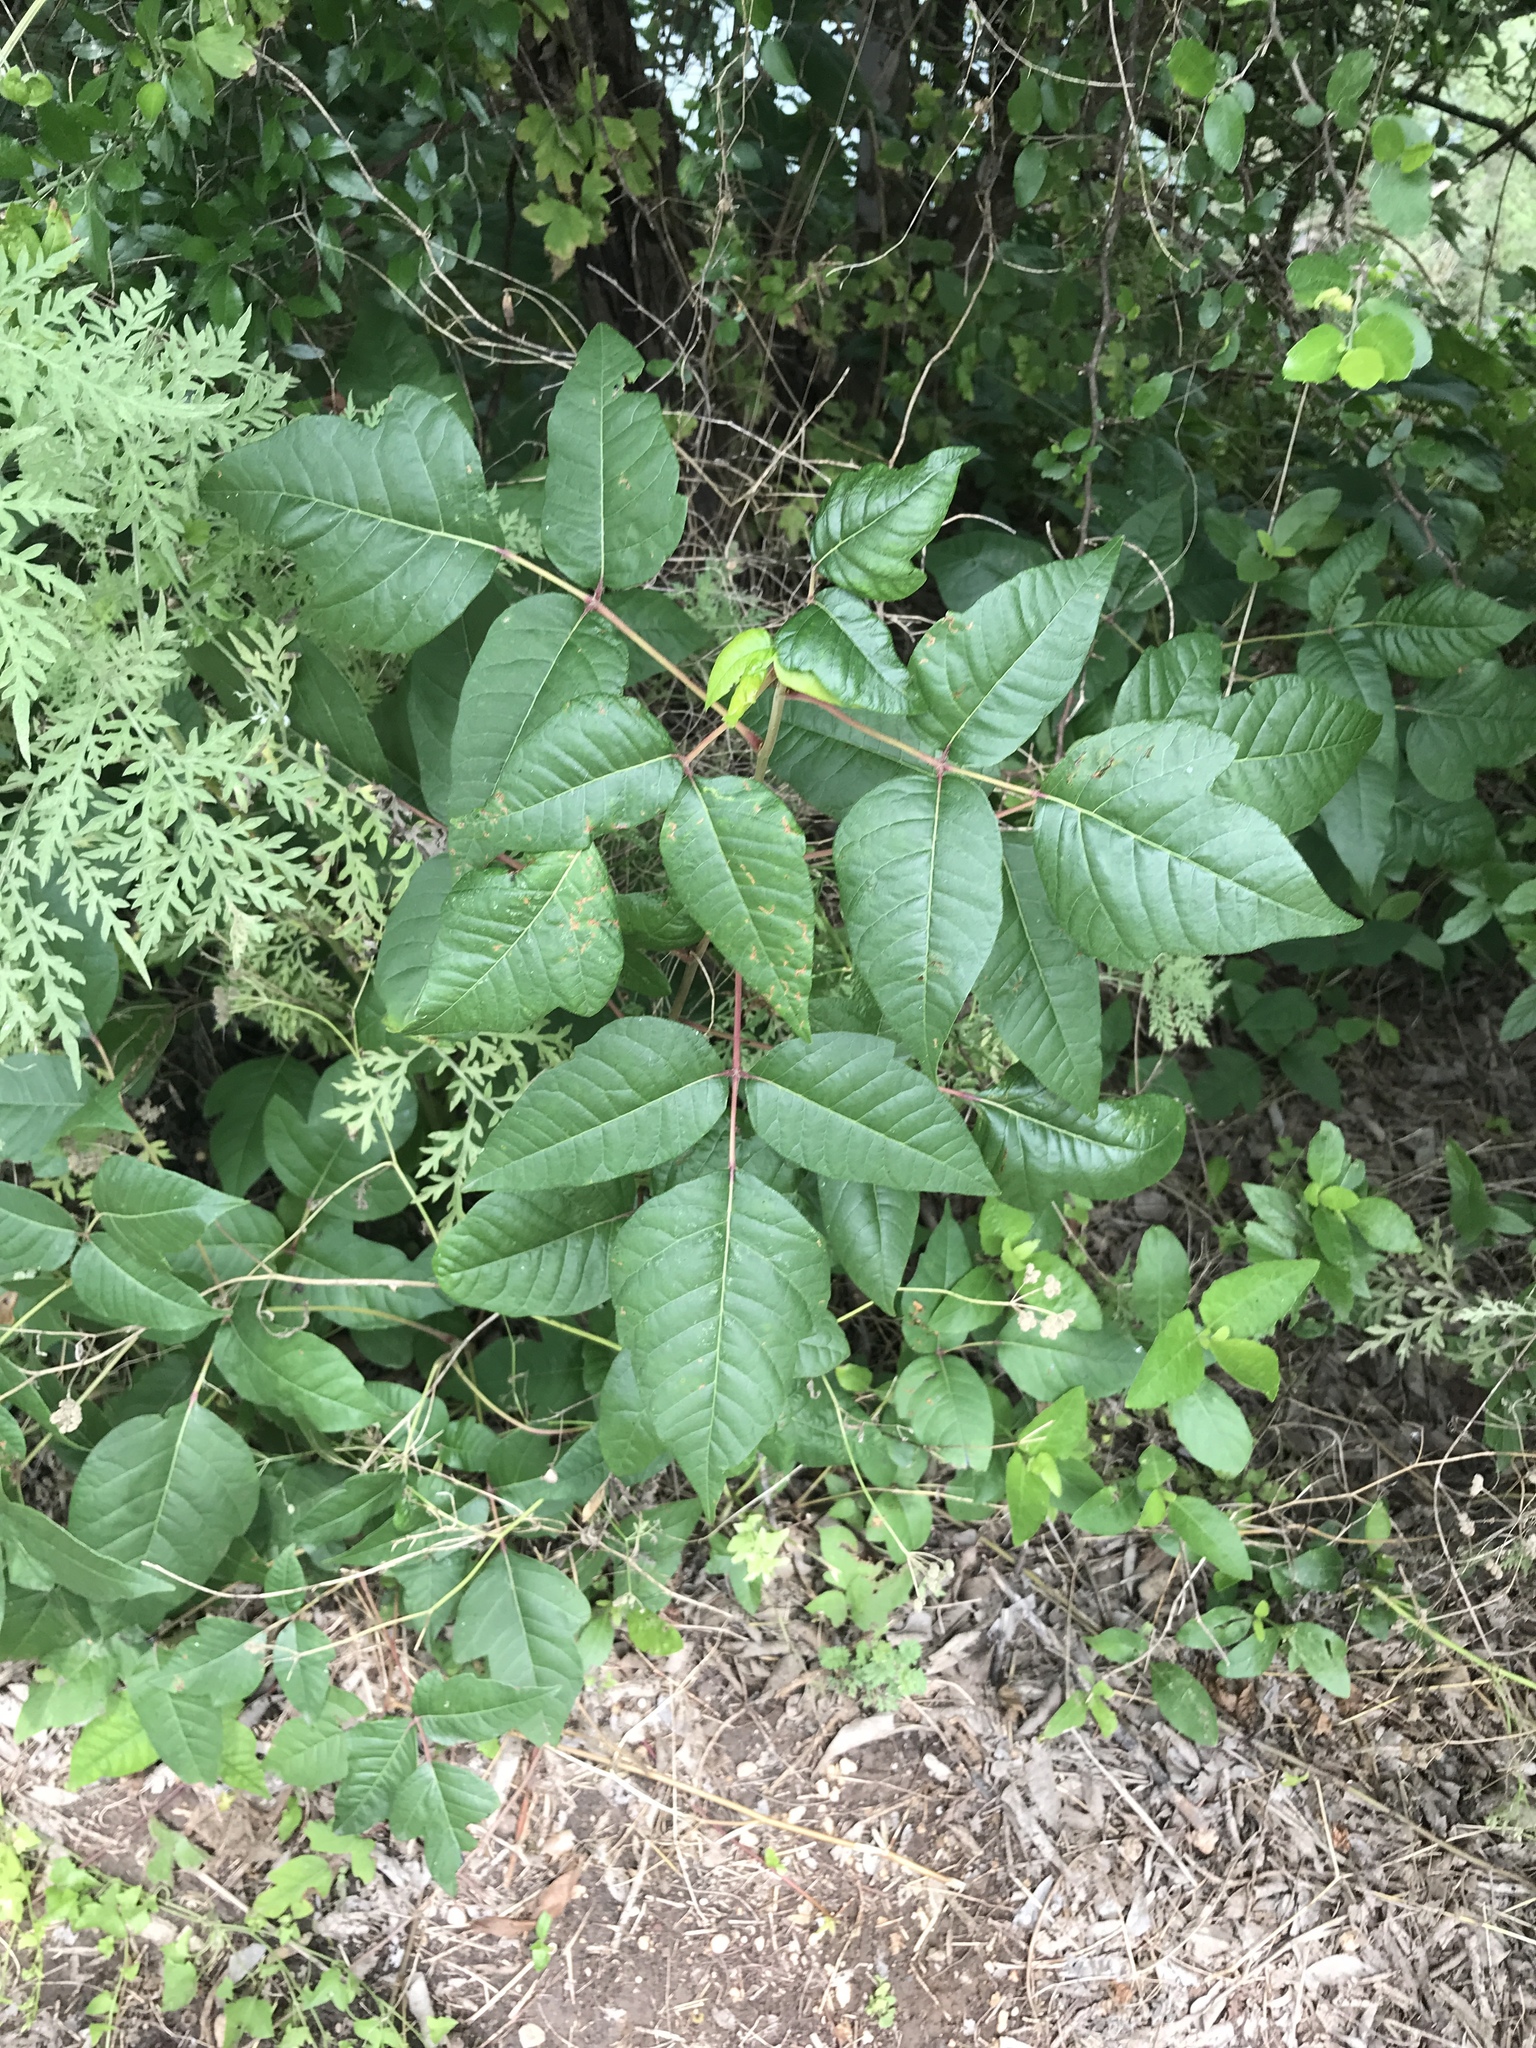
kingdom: Plantae
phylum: Tracheophyta
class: Magnoliopsida
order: Sapindales
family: Anacardiaceae
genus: Toxicodendron
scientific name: Toxicodendron radicans
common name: Poison ivy
